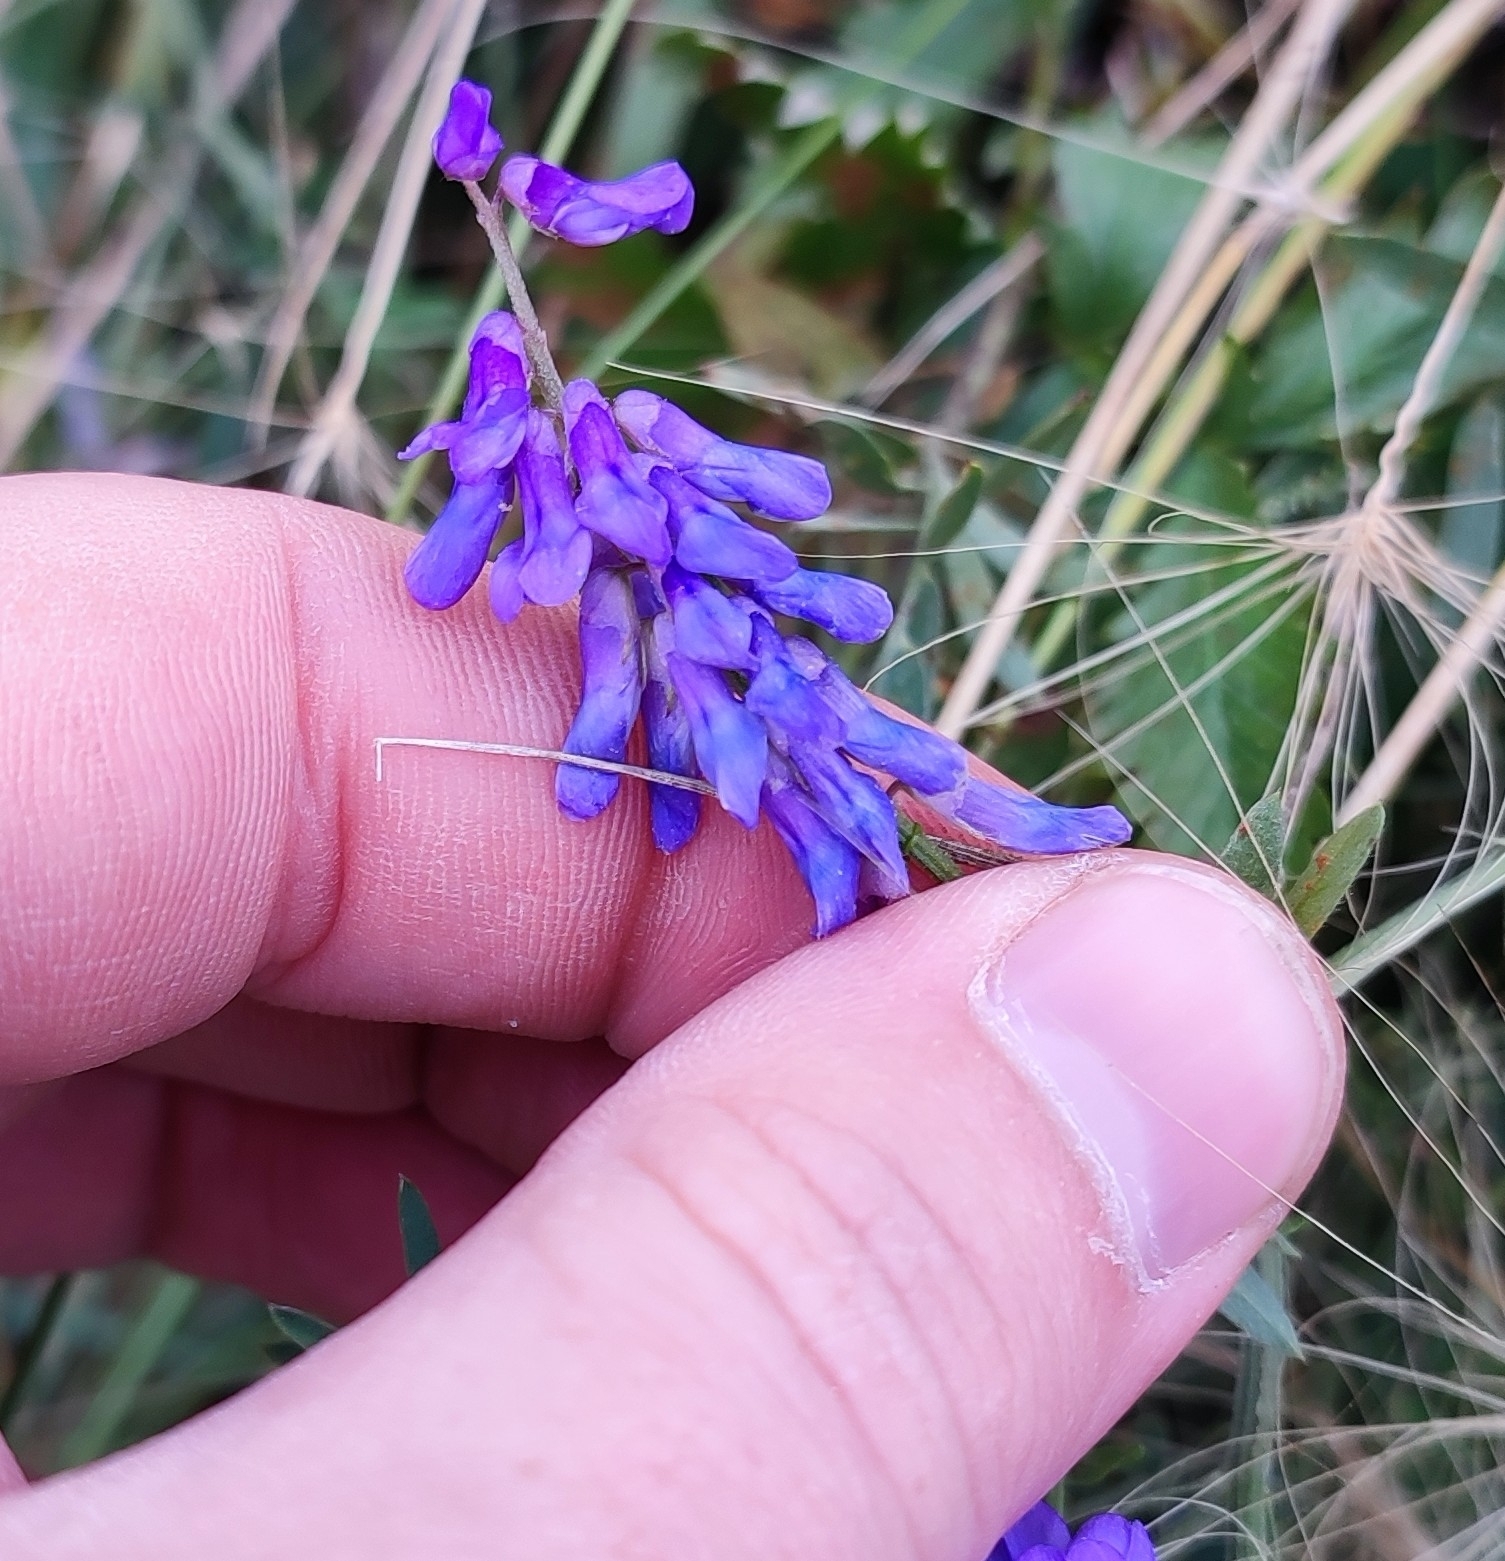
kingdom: Plantae
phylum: Tracheophyta
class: Magnoliopsida
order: Fabales
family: Fabaceae
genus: Vicia
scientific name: Vicia cracca
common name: Bird vetch
